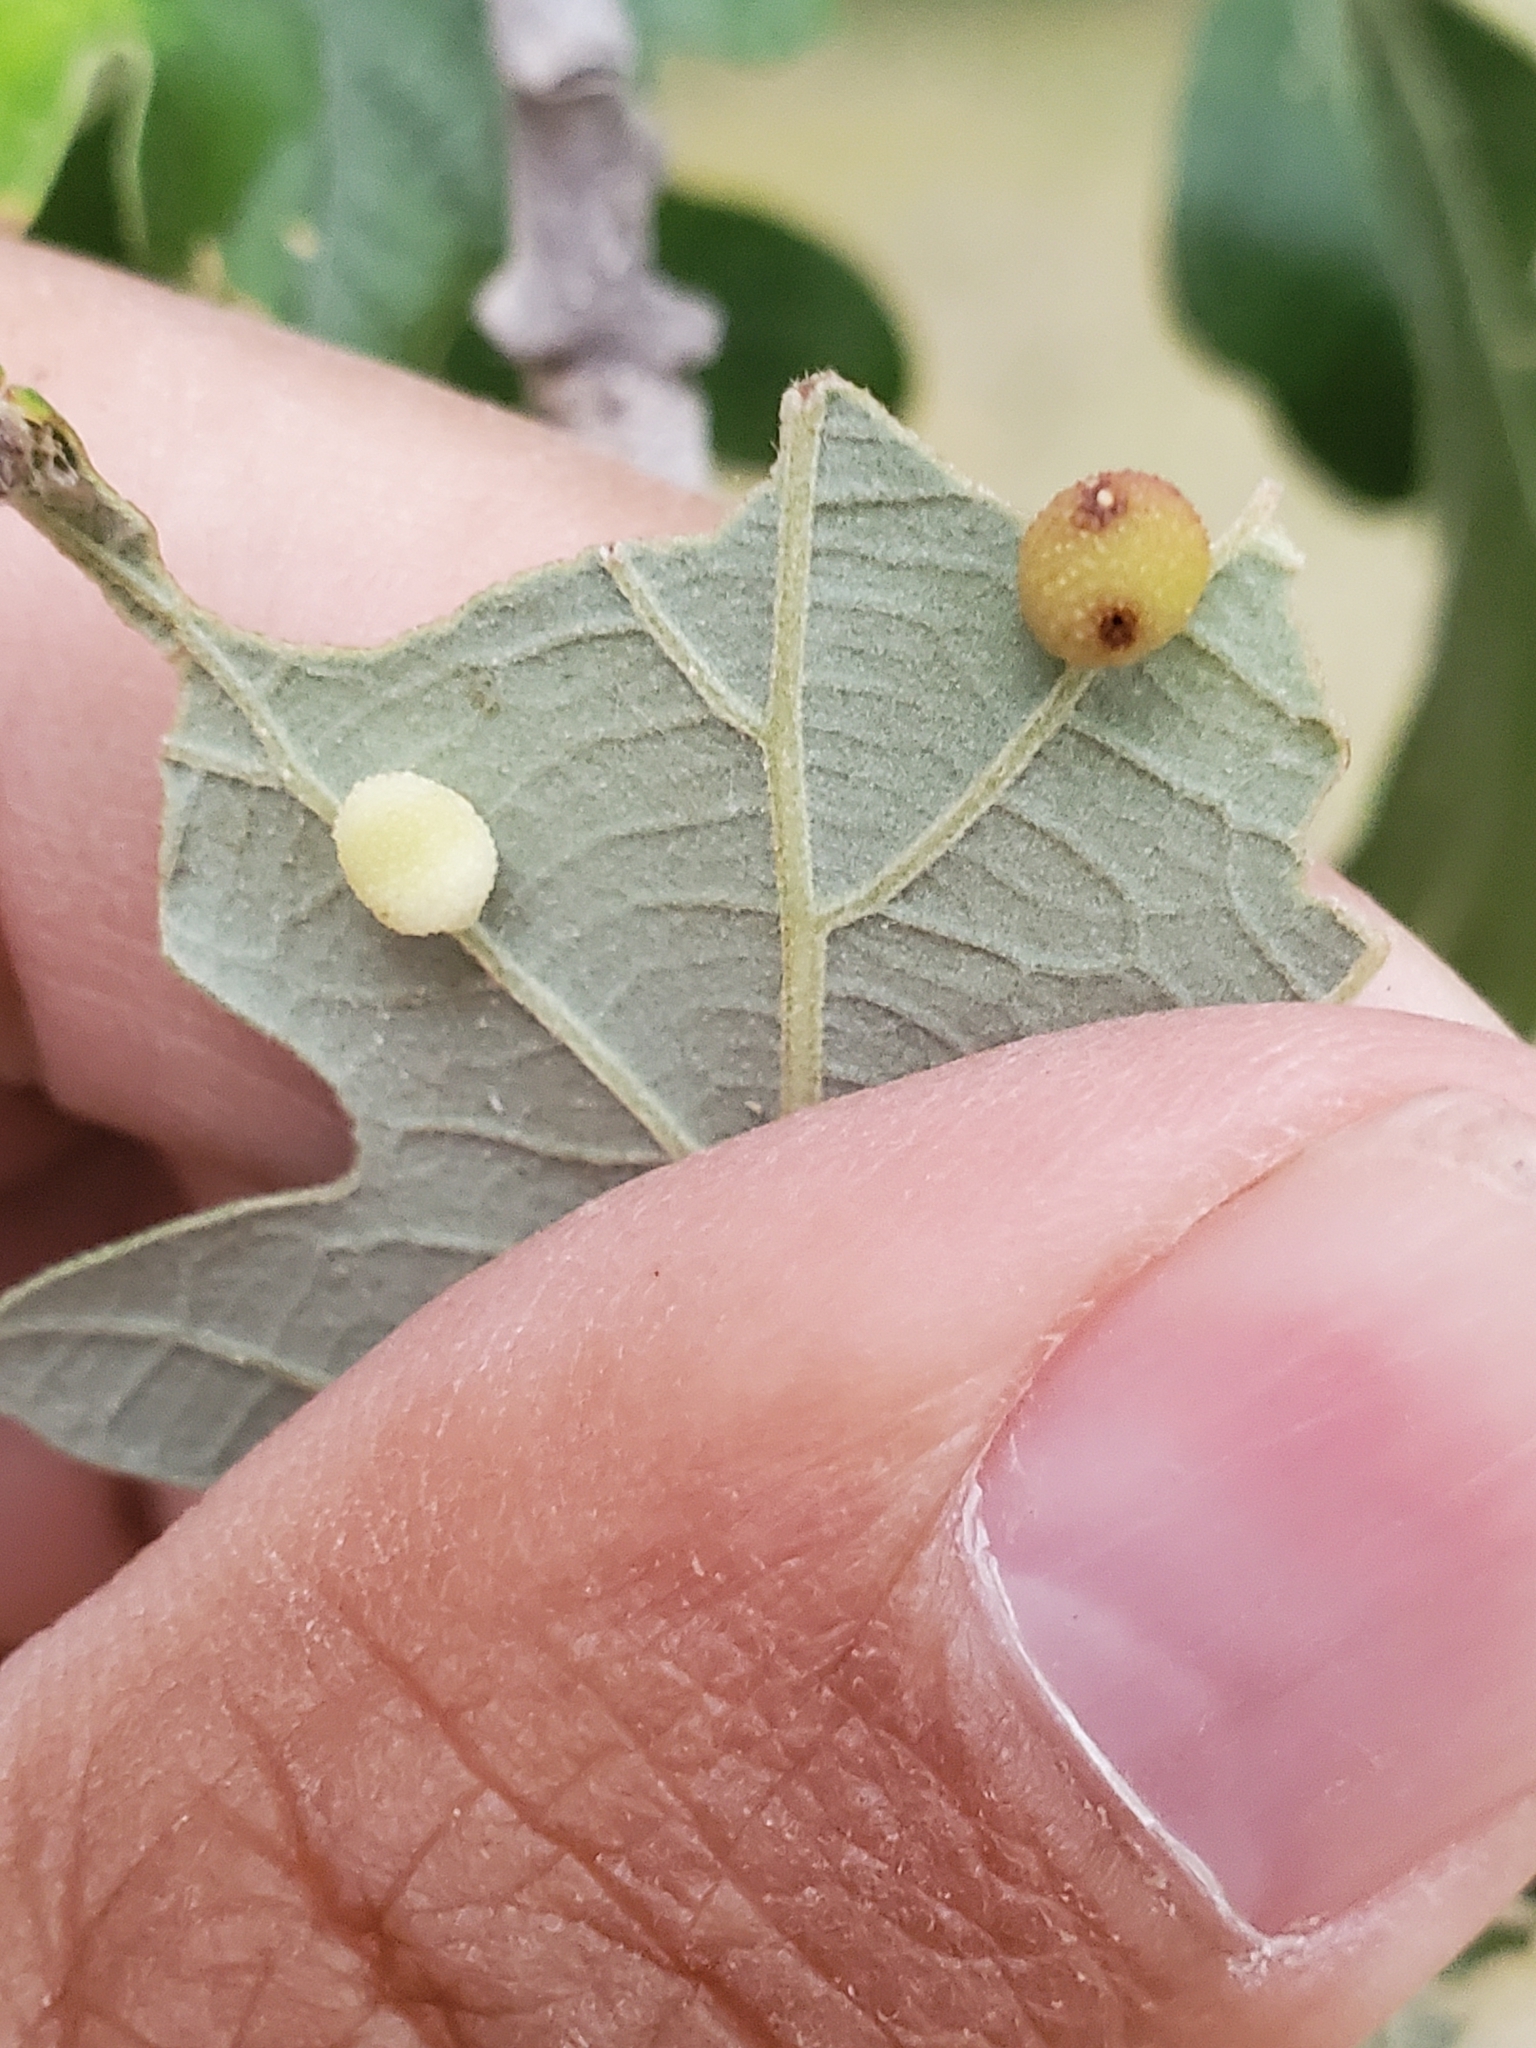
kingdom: Animalia
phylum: Arthropoda
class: Insecta
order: Hymenoptera
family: Cynipidae
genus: Acraspis
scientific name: Acraspis quercushirta
